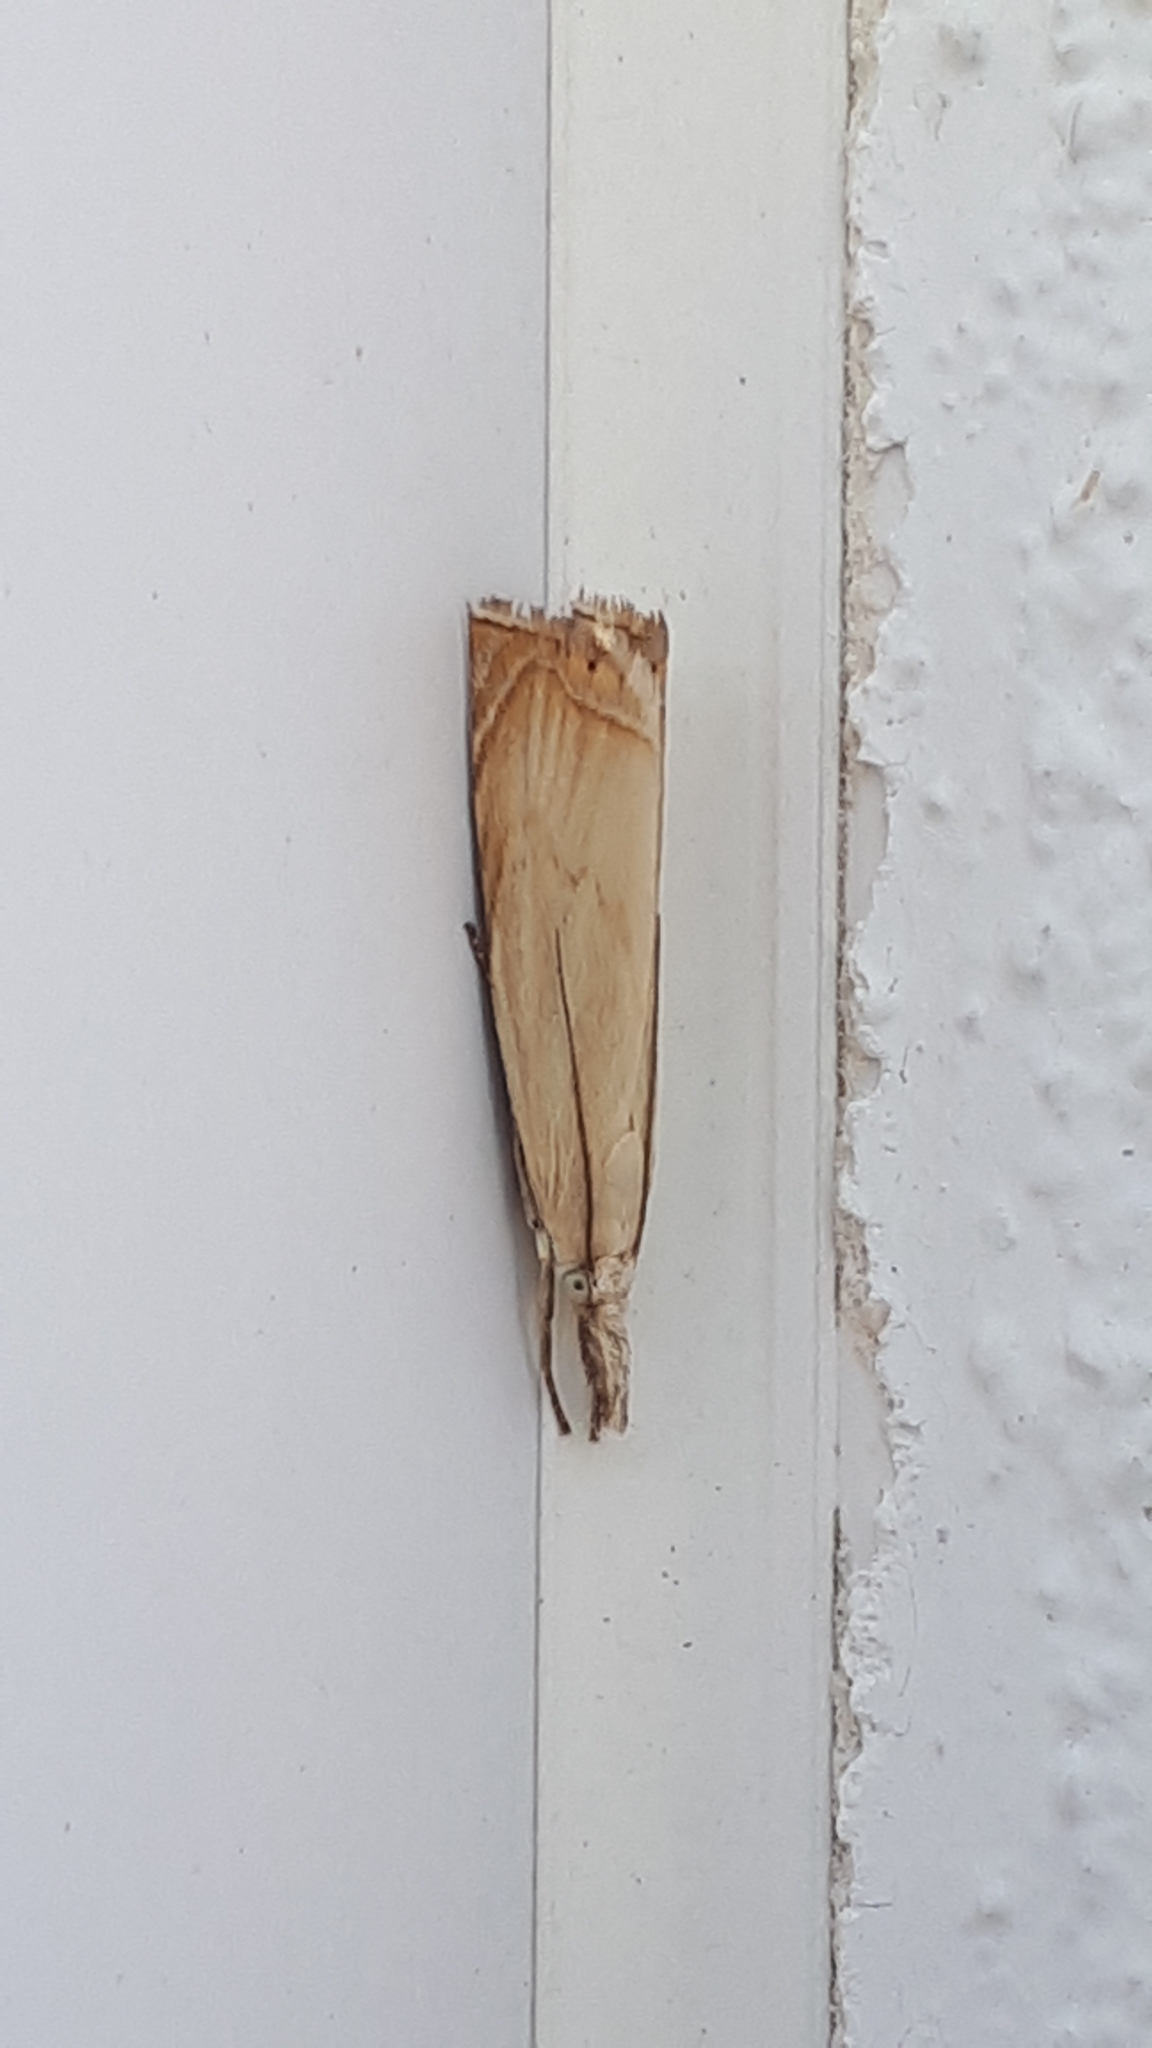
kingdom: Animalia
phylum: Arthropoda
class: Insecta
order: Lepidoptera
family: Crambidae
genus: Chrysoteuchia
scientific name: Chrysoteuchia culmella
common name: Garden grass-veneer
